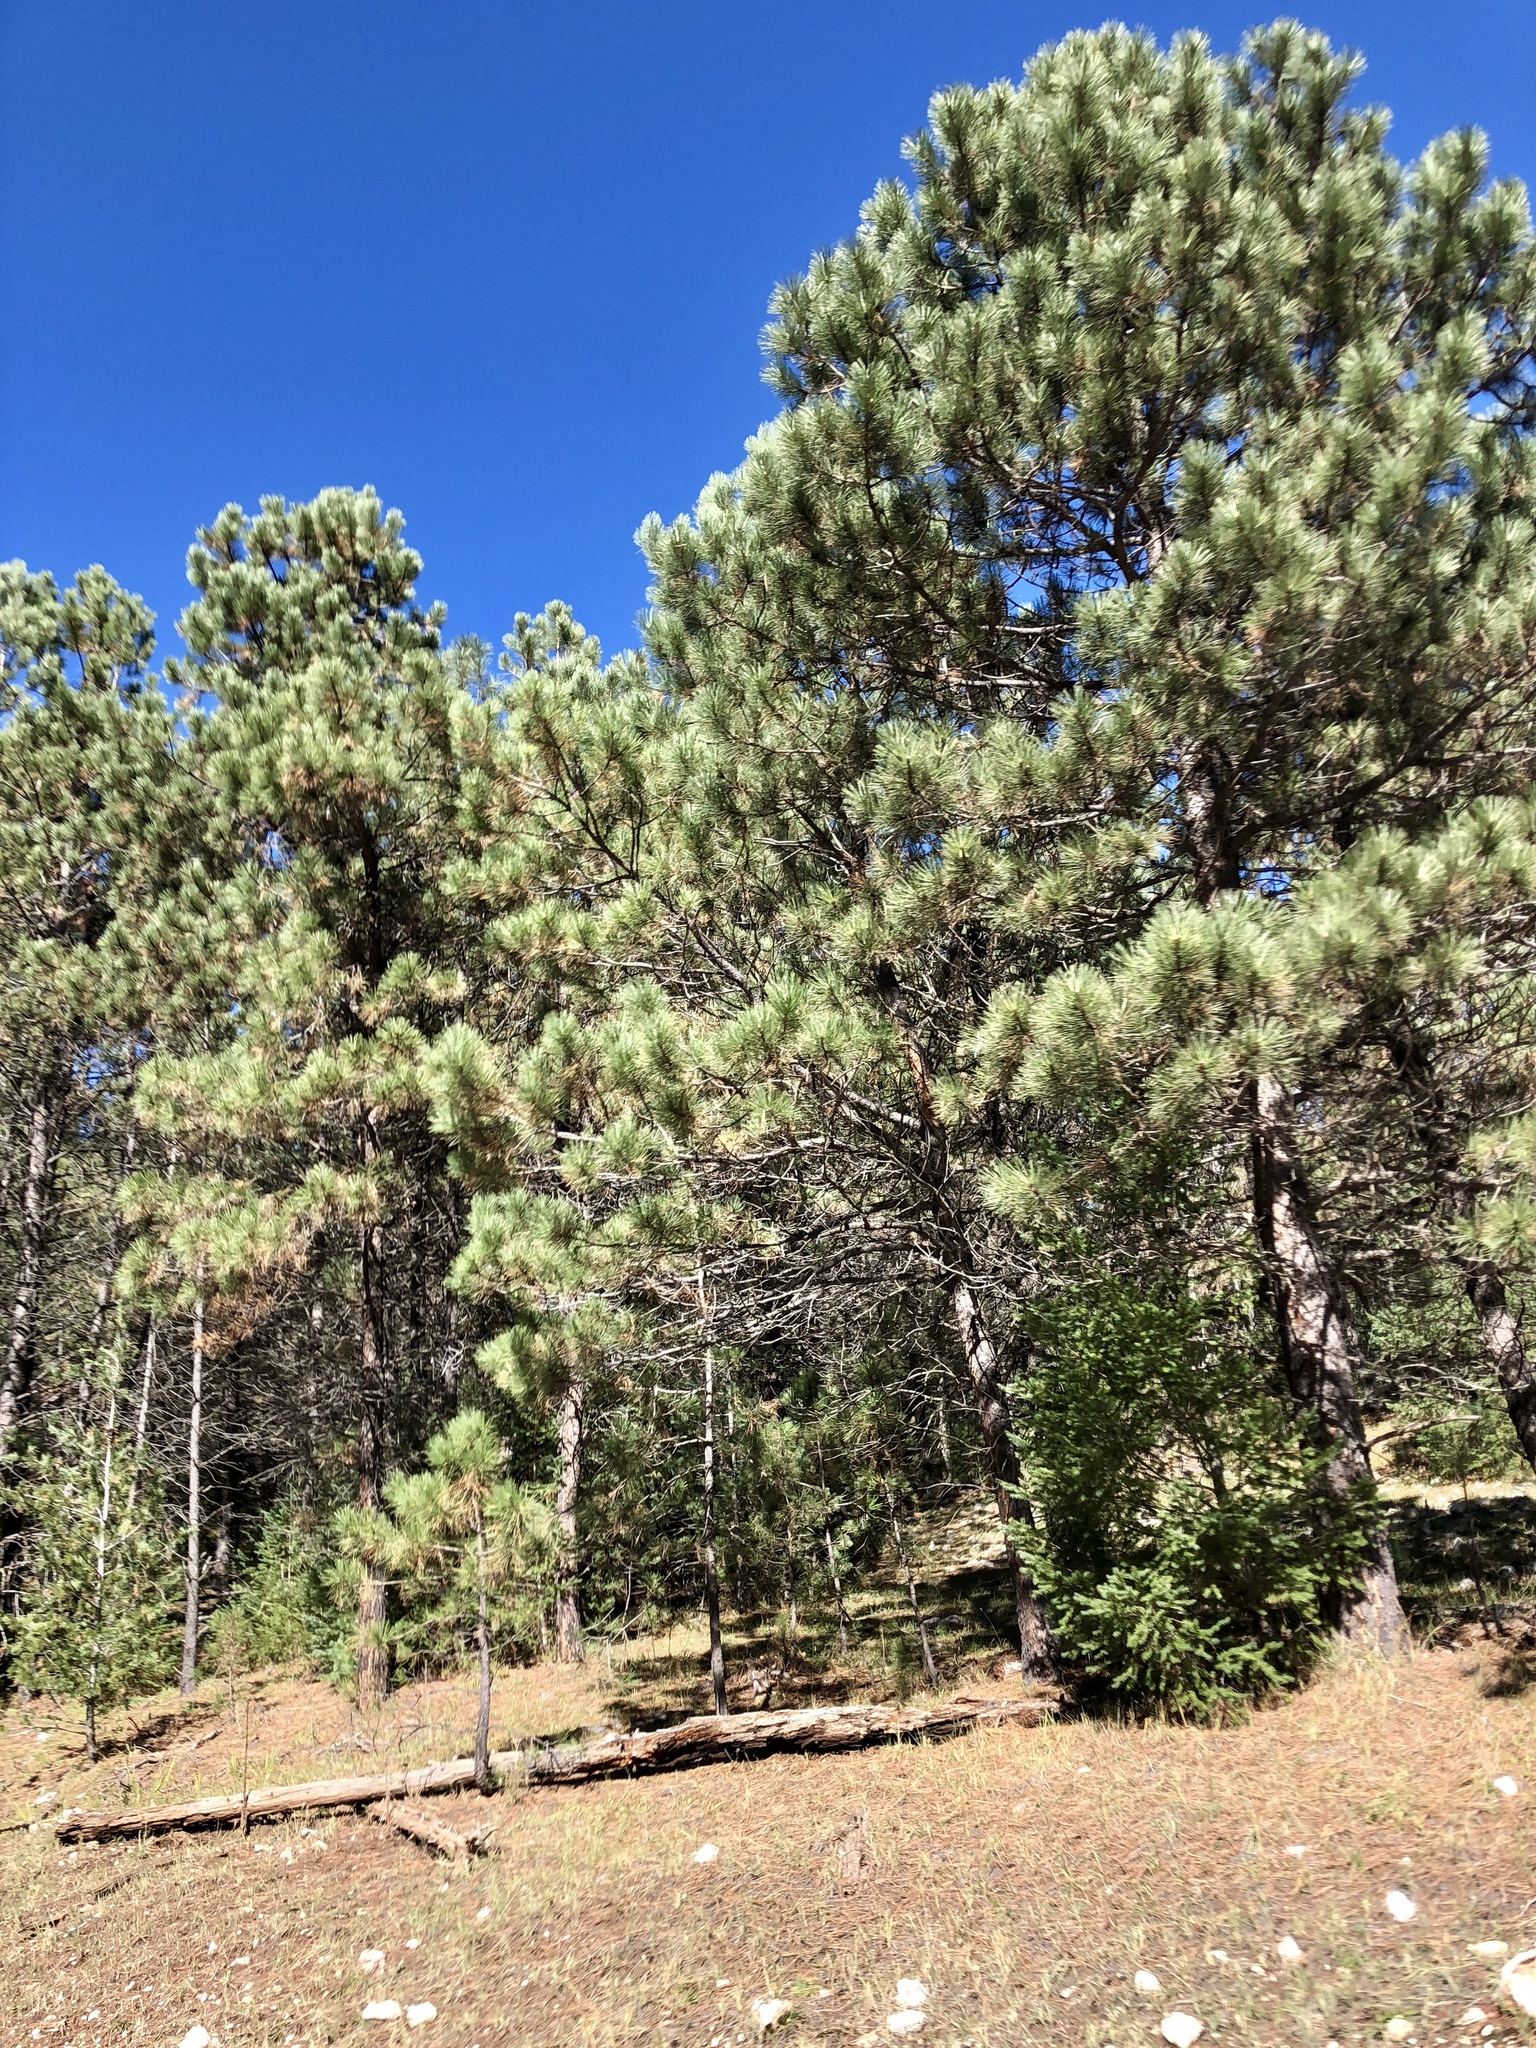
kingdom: Plantae
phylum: Tracheophyta
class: Pinopsida
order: Pinales
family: Pinaceae
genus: Pinus
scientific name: Pinus ponderosa
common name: Western yellow-pine
